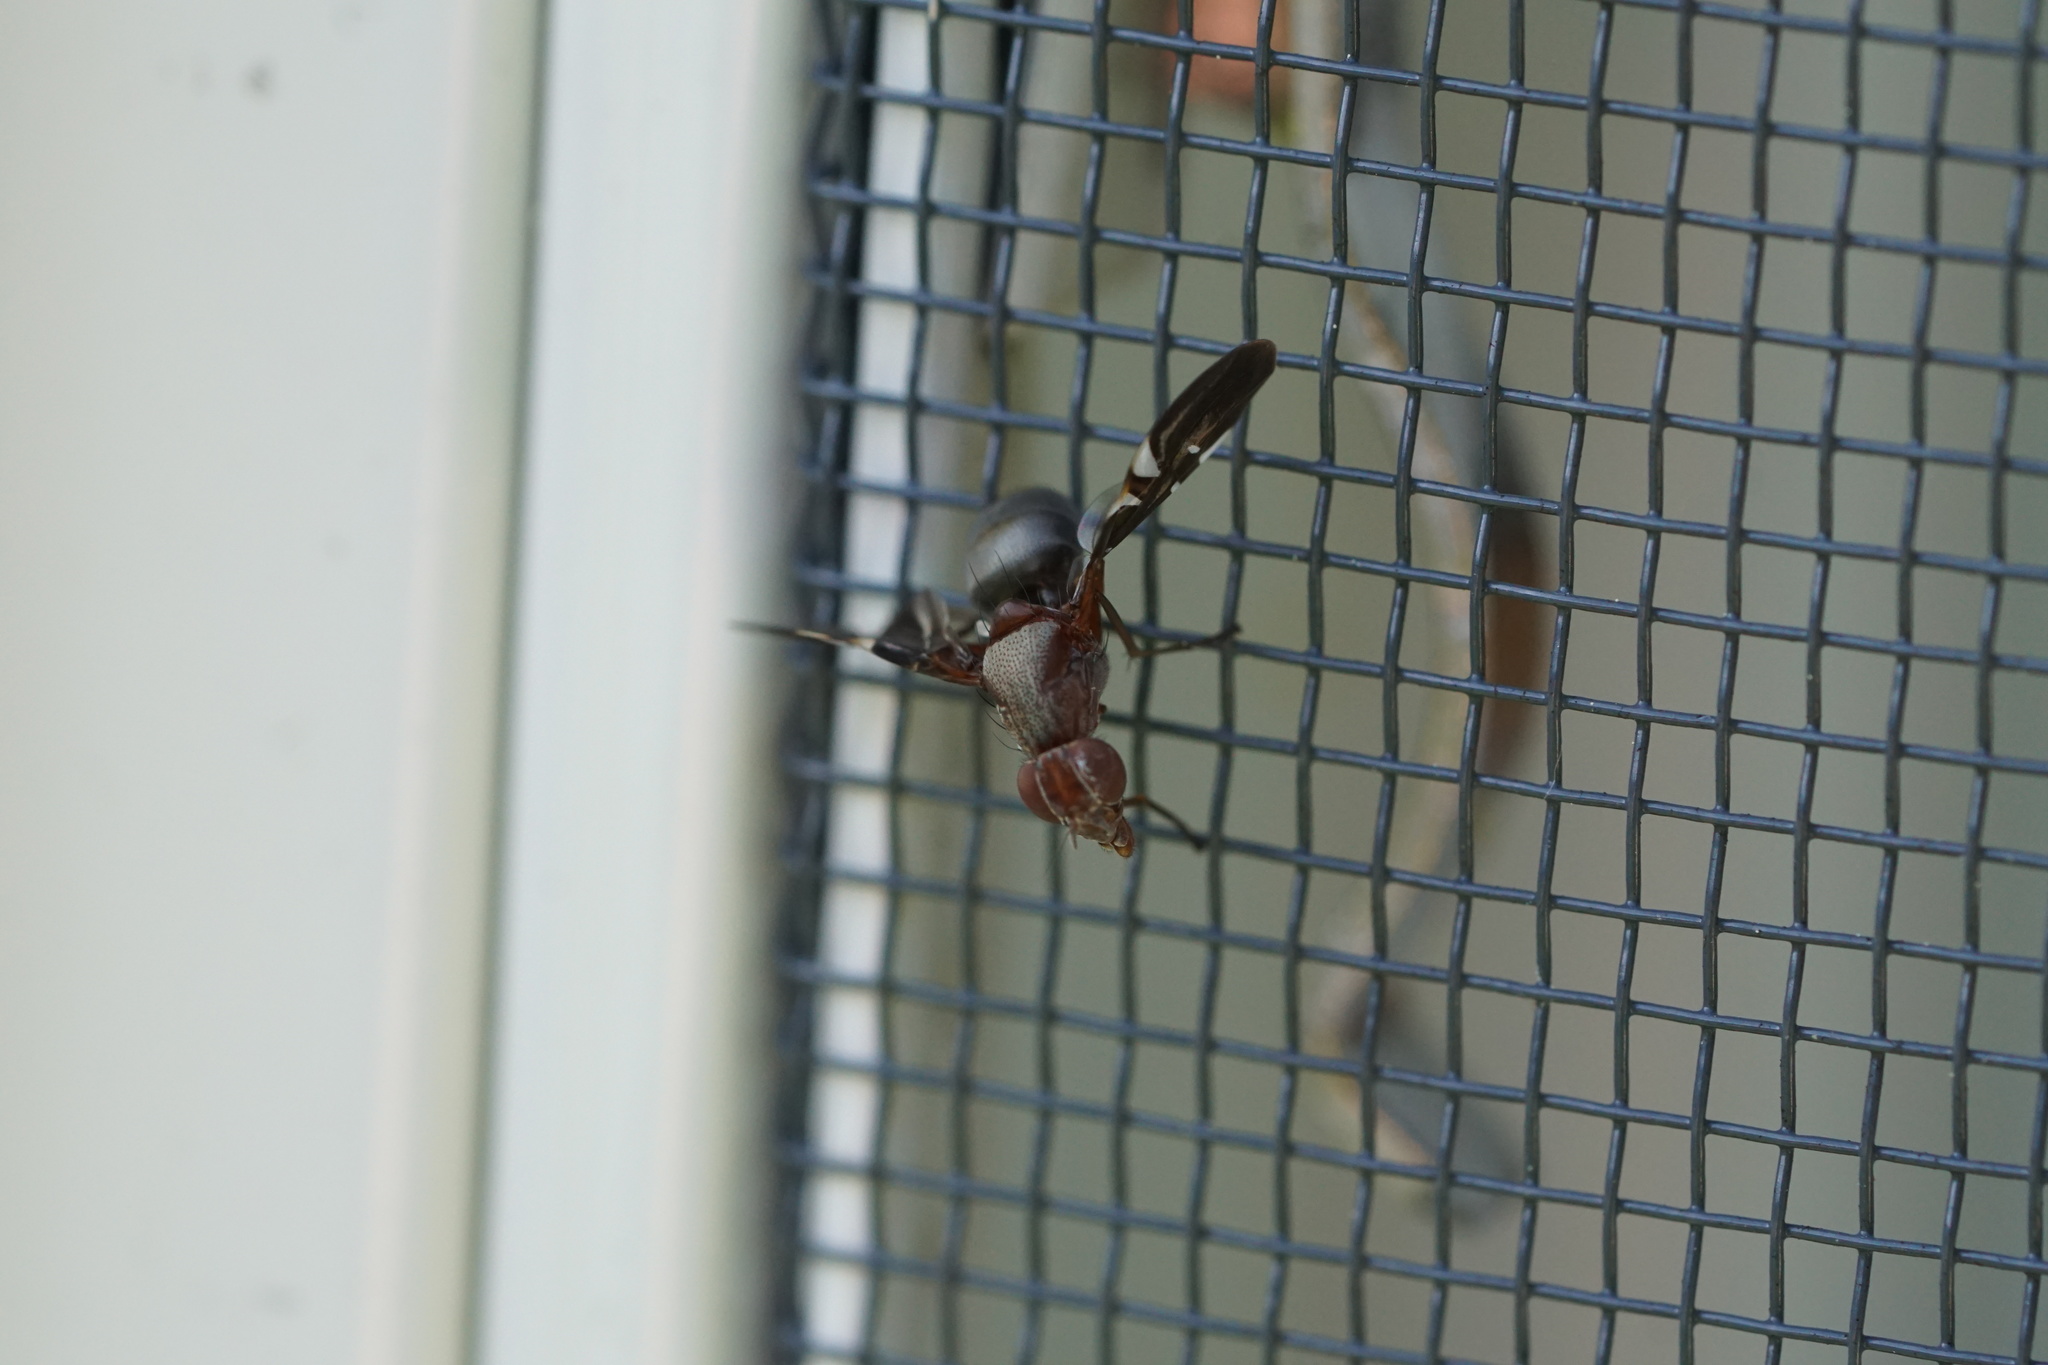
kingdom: Animalia
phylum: Arthropoda
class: Insecta
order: Diptera
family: Ulidiidae
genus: Delphinia
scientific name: Delphinia picta
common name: Common picture-winged fly
